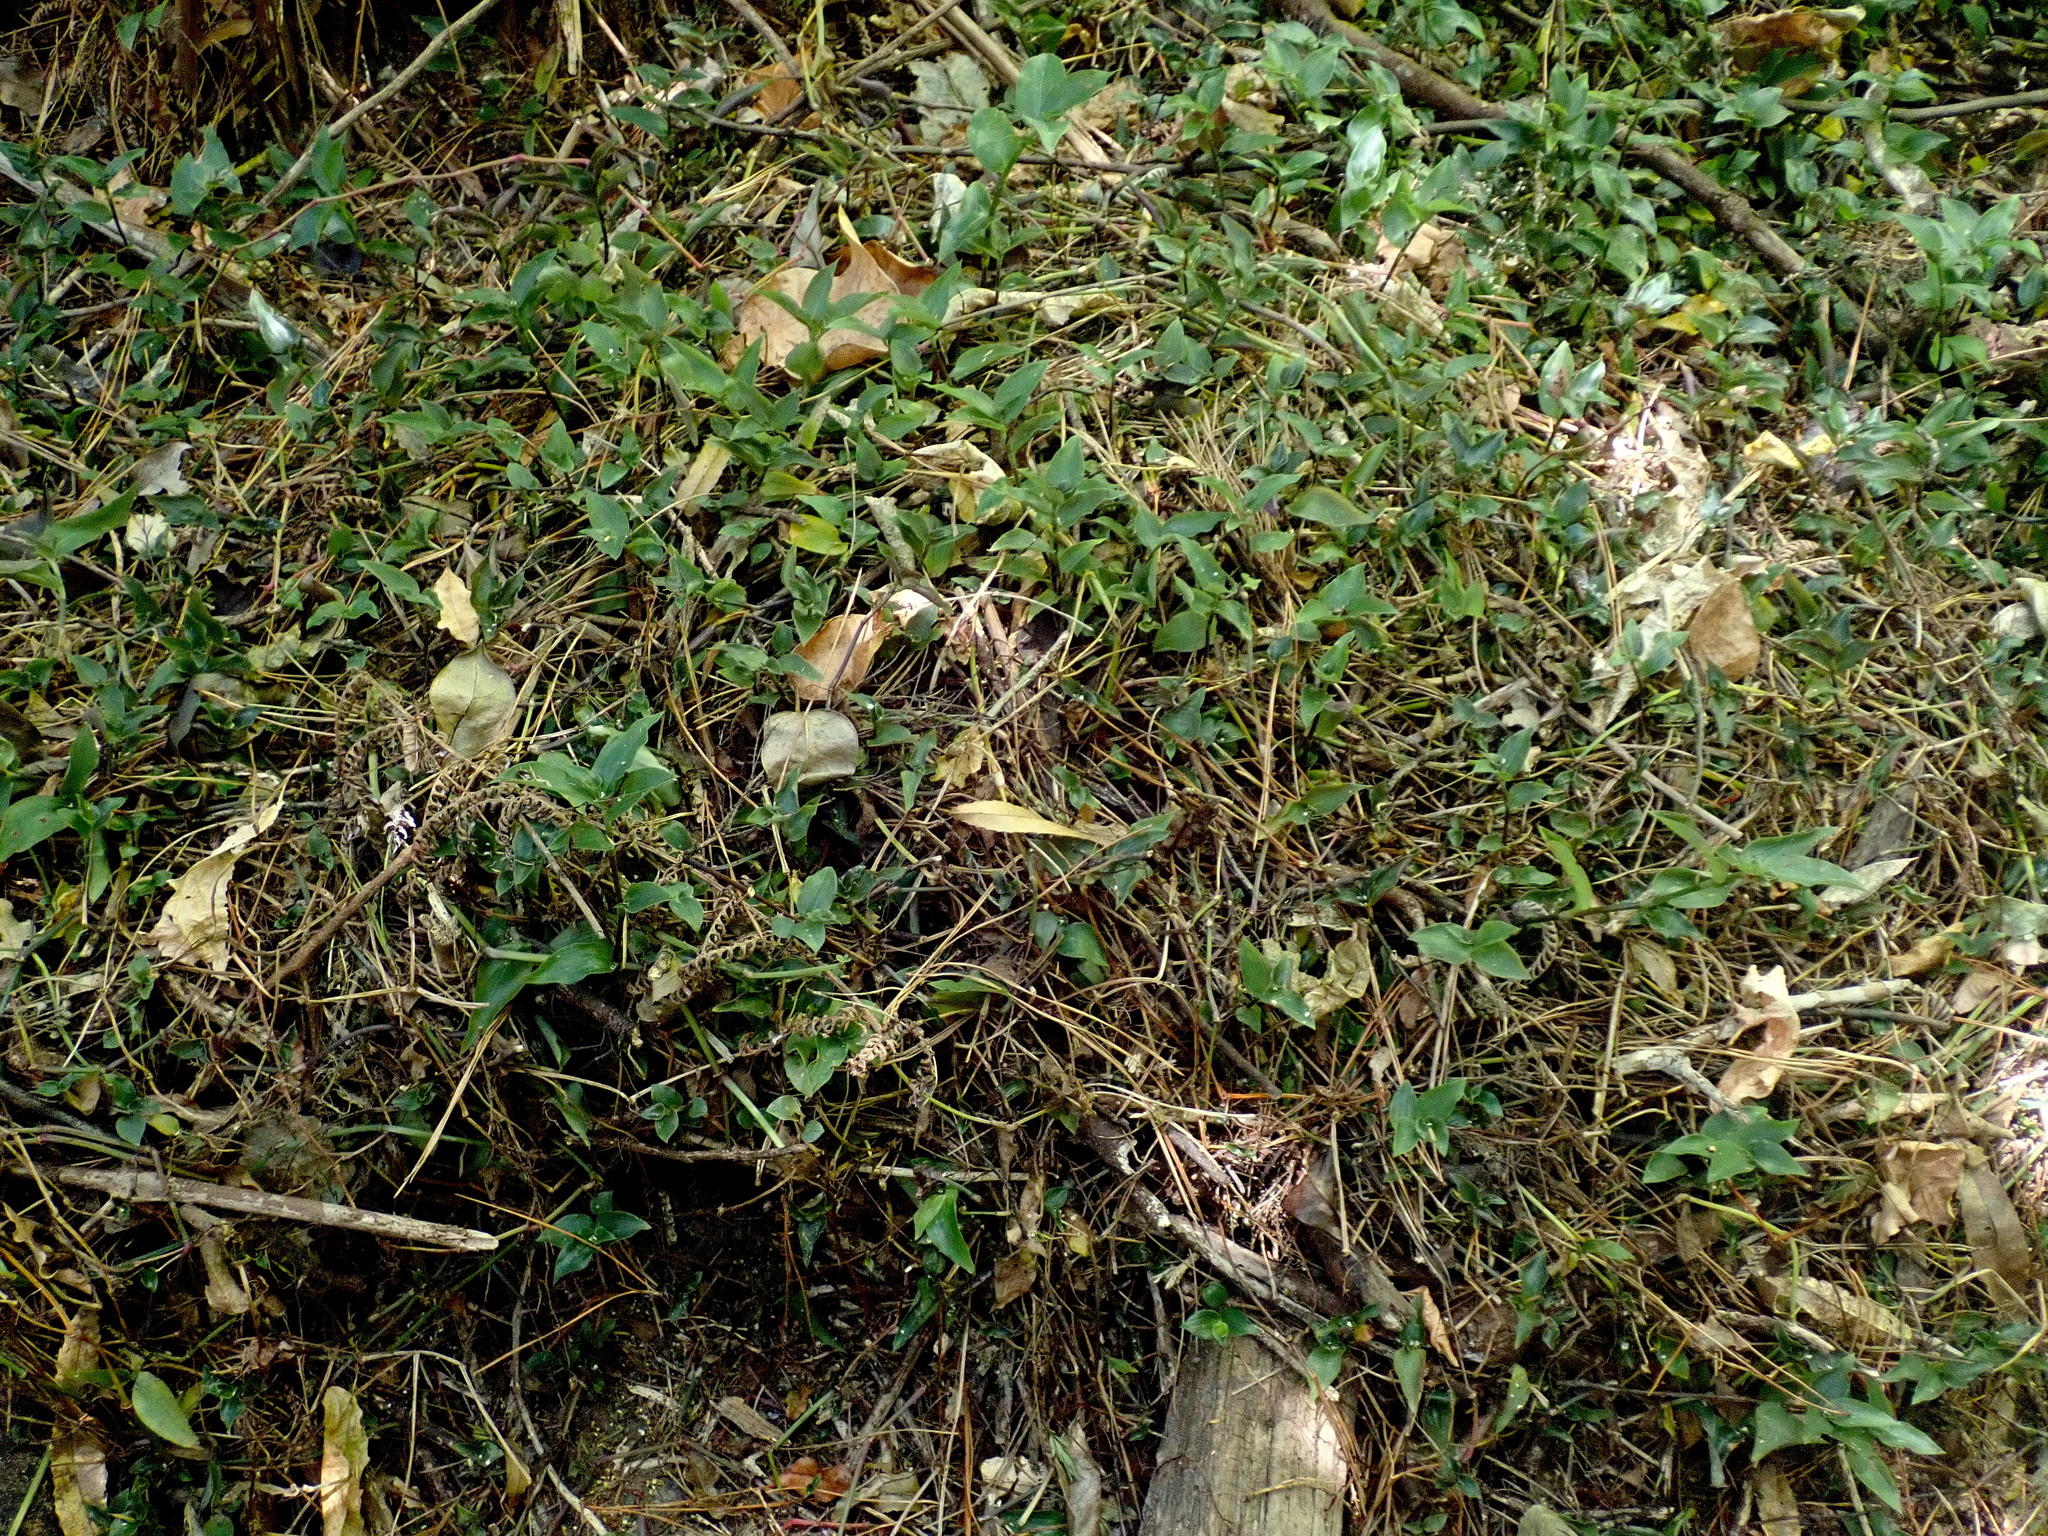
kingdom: Plantae
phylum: Tracheophyta
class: Liliopsida
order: Commelinales
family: Commelinaceae
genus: Tradescantia
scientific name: Tradescantia fluminensis
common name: Wandering-jew
